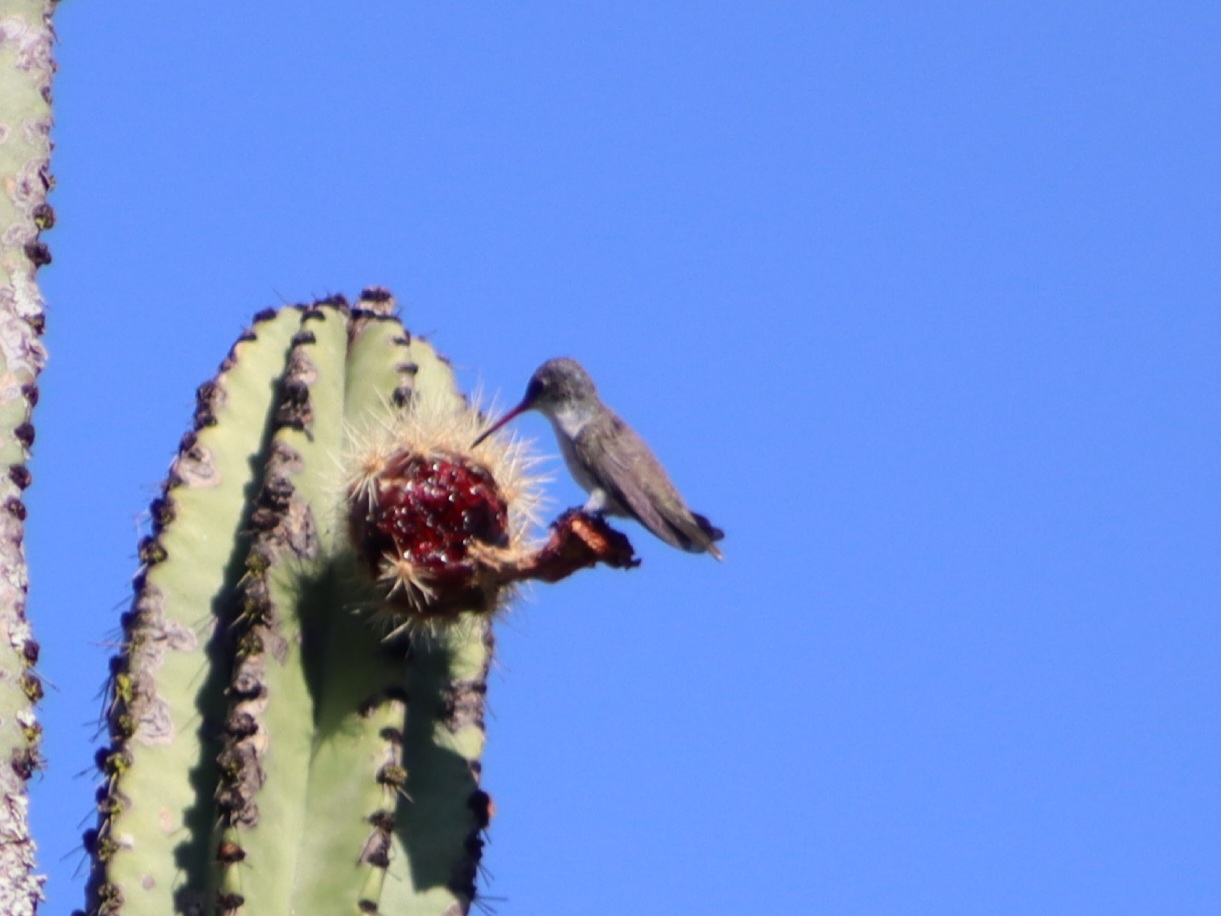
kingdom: Animalia
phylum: Chordata
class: Aves
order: Apodiformes
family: Trochilidae
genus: Leucolia
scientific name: Leucolia violiceps
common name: Violet-crowned hummingbird
